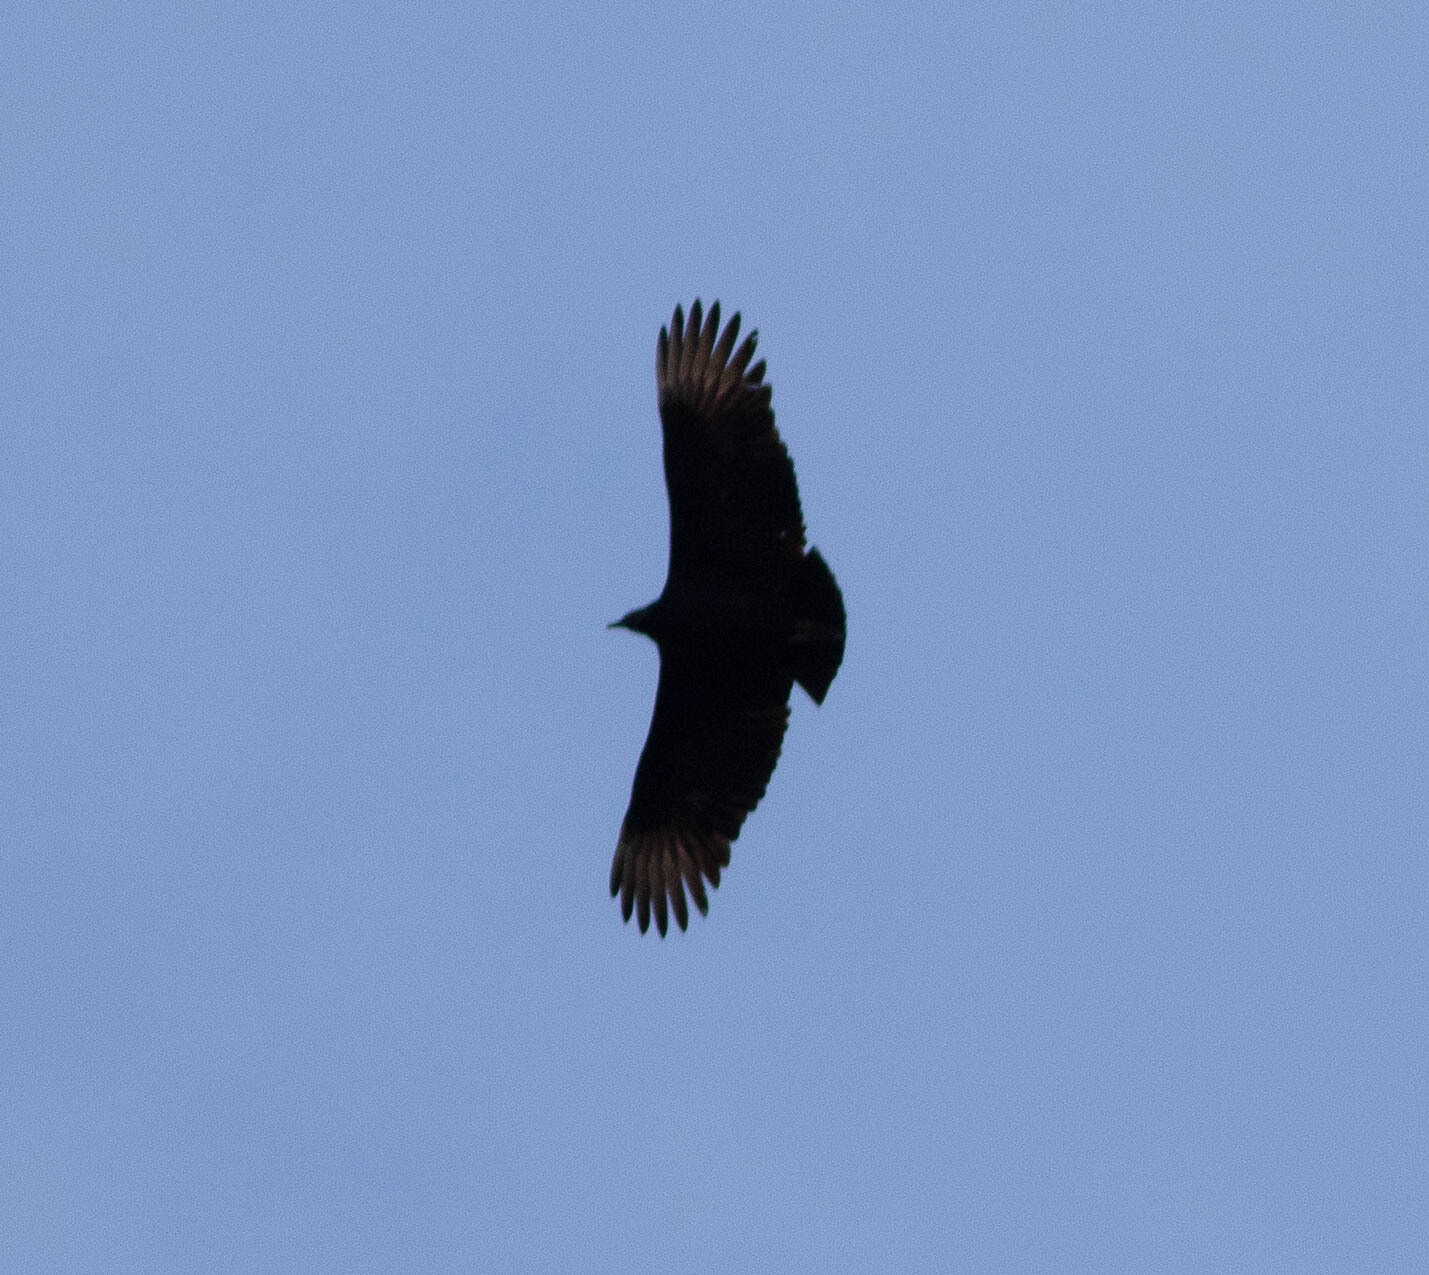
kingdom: Animalia
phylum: Chordata
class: Aves
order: Accipitriformes
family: Cathartidae
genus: Coragyps
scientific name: Coragyps atratus
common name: Black vulture
